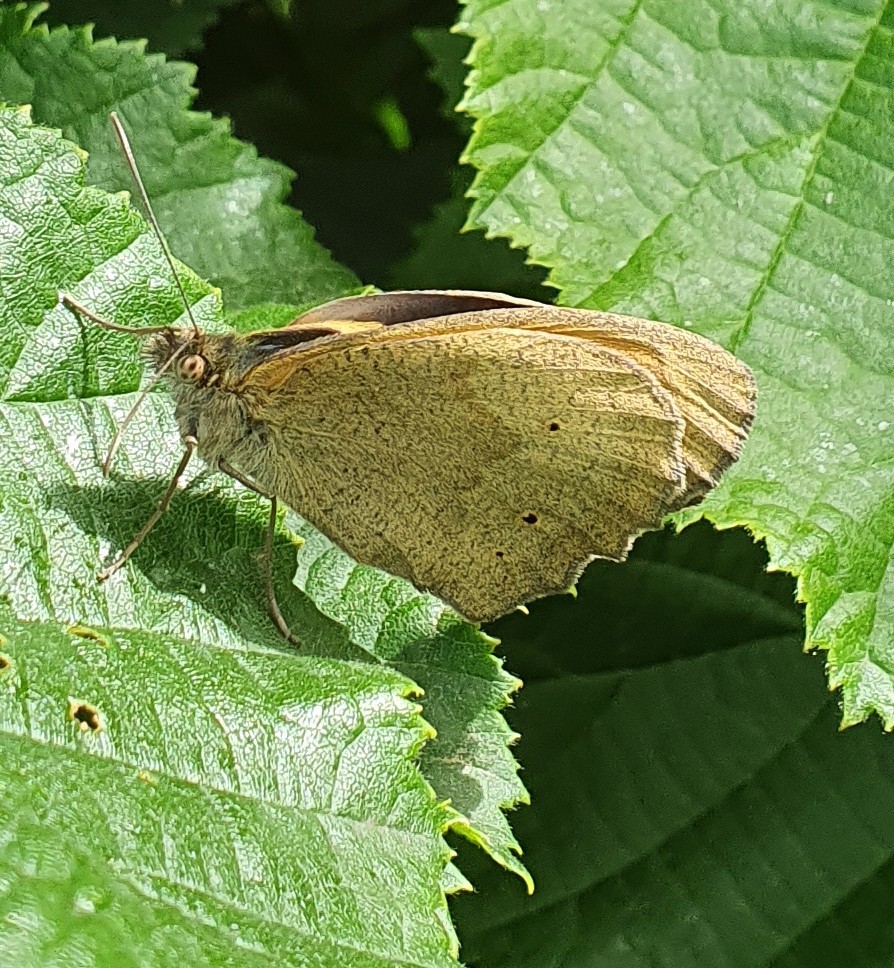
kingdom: Animalia
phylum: Arthropoda
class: Insecta
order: Lepidoptera
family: Nymphalidae
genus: Maniola
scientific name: Maniola jurtina
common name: Meadow brown
